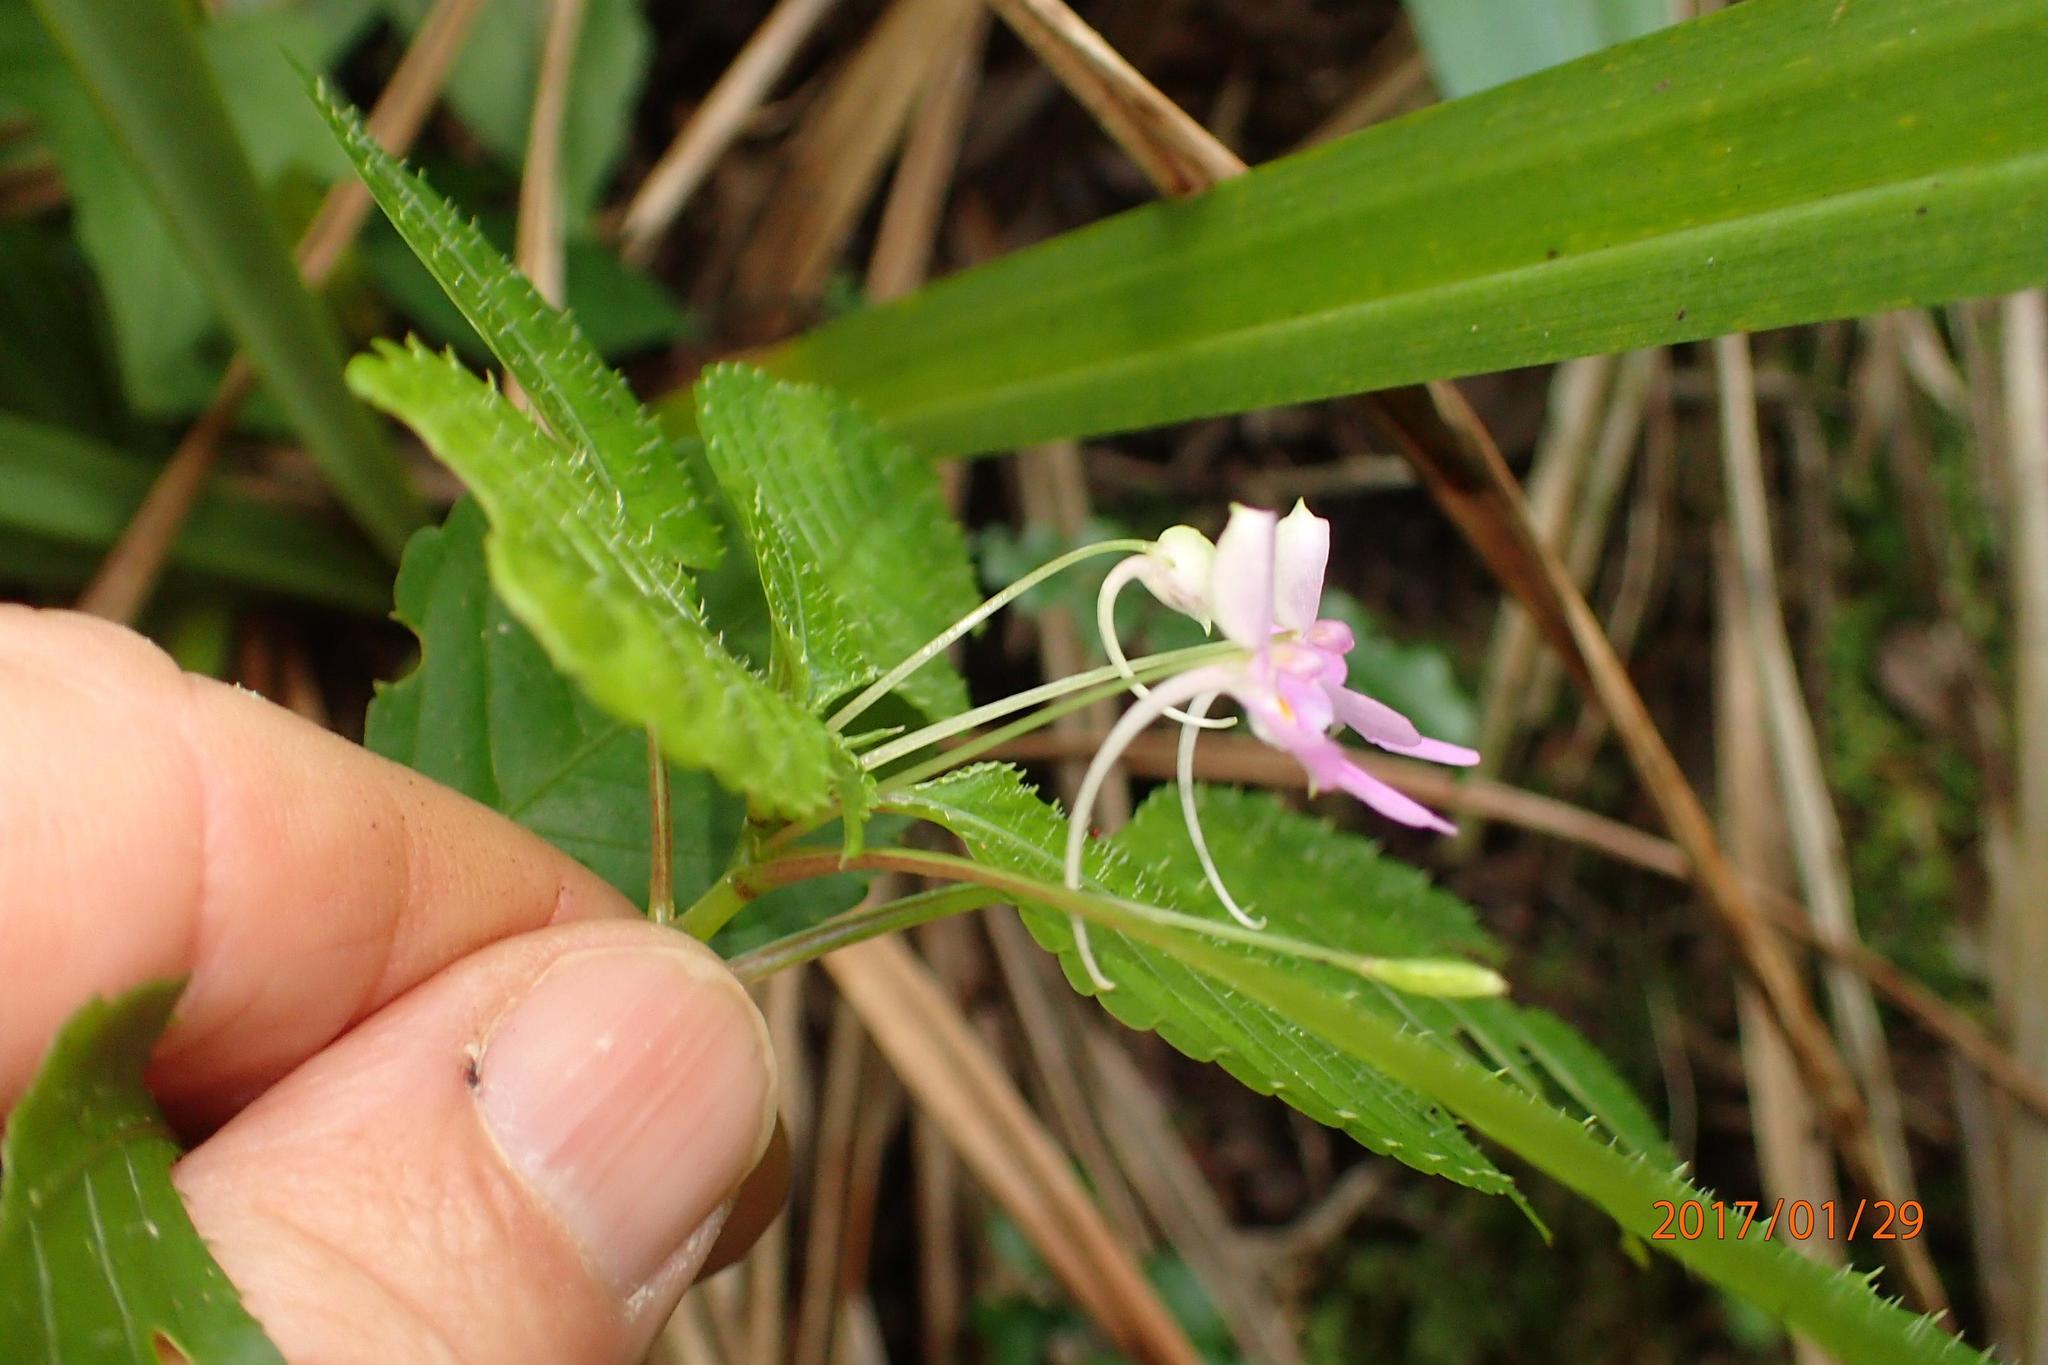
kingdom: Plantae
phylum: Tracheophyta
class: Magnoliopsida
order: Ericales
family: Balsaminaceae
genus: Impatiens
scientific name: Impatiens hochstetteri
